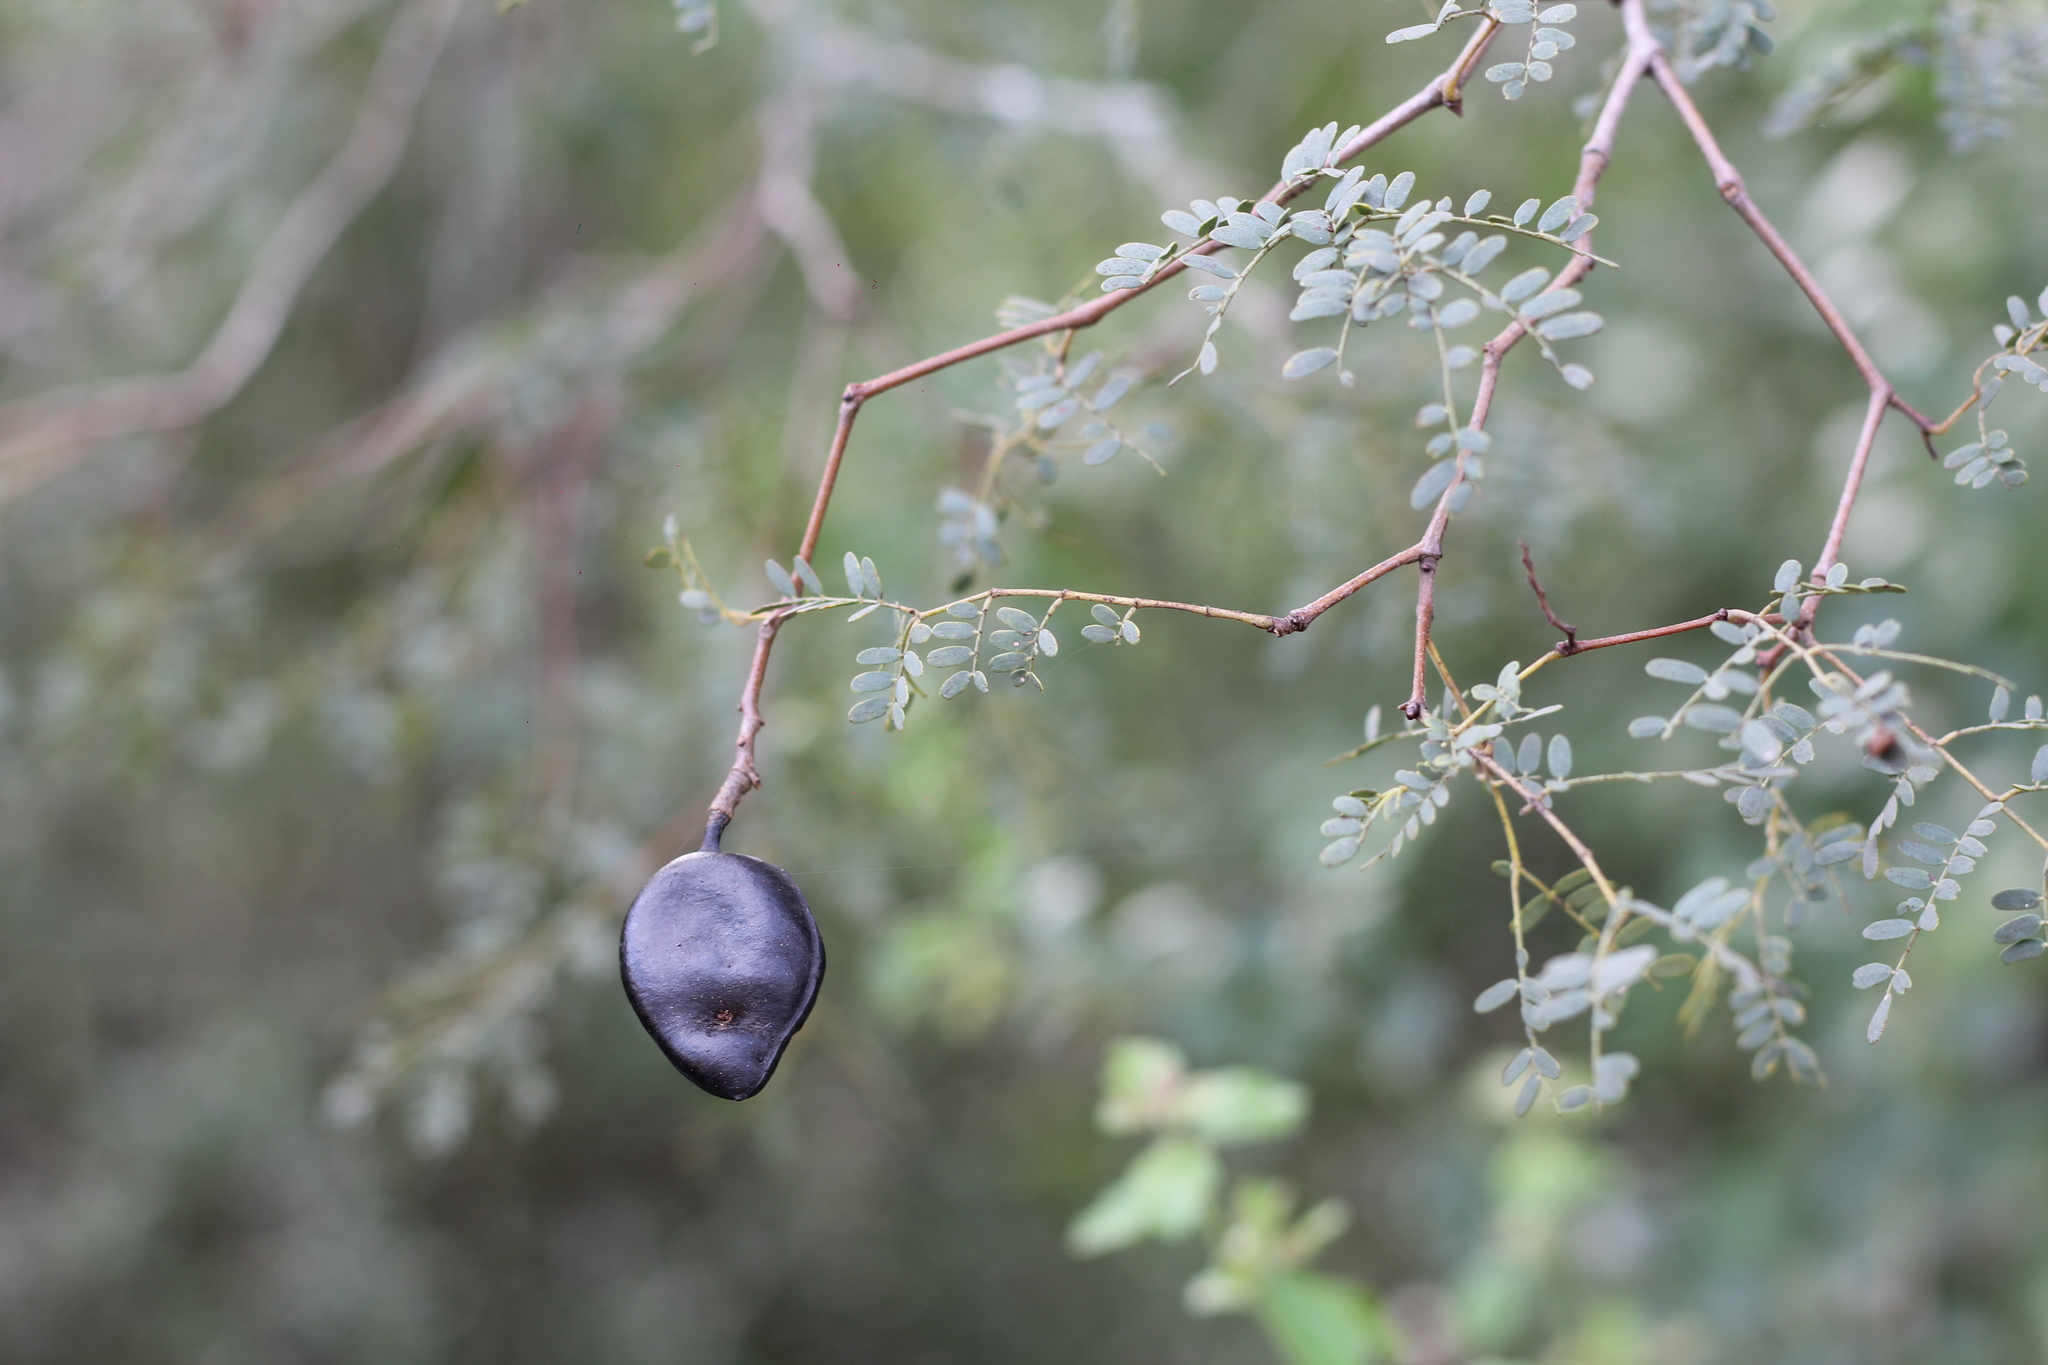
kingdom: Plantae
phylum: Tracheophyta
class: Magnoliopsida
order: Fabales
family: Fabaceae
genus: Libidibia
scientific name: Libidibia paraguariensis
